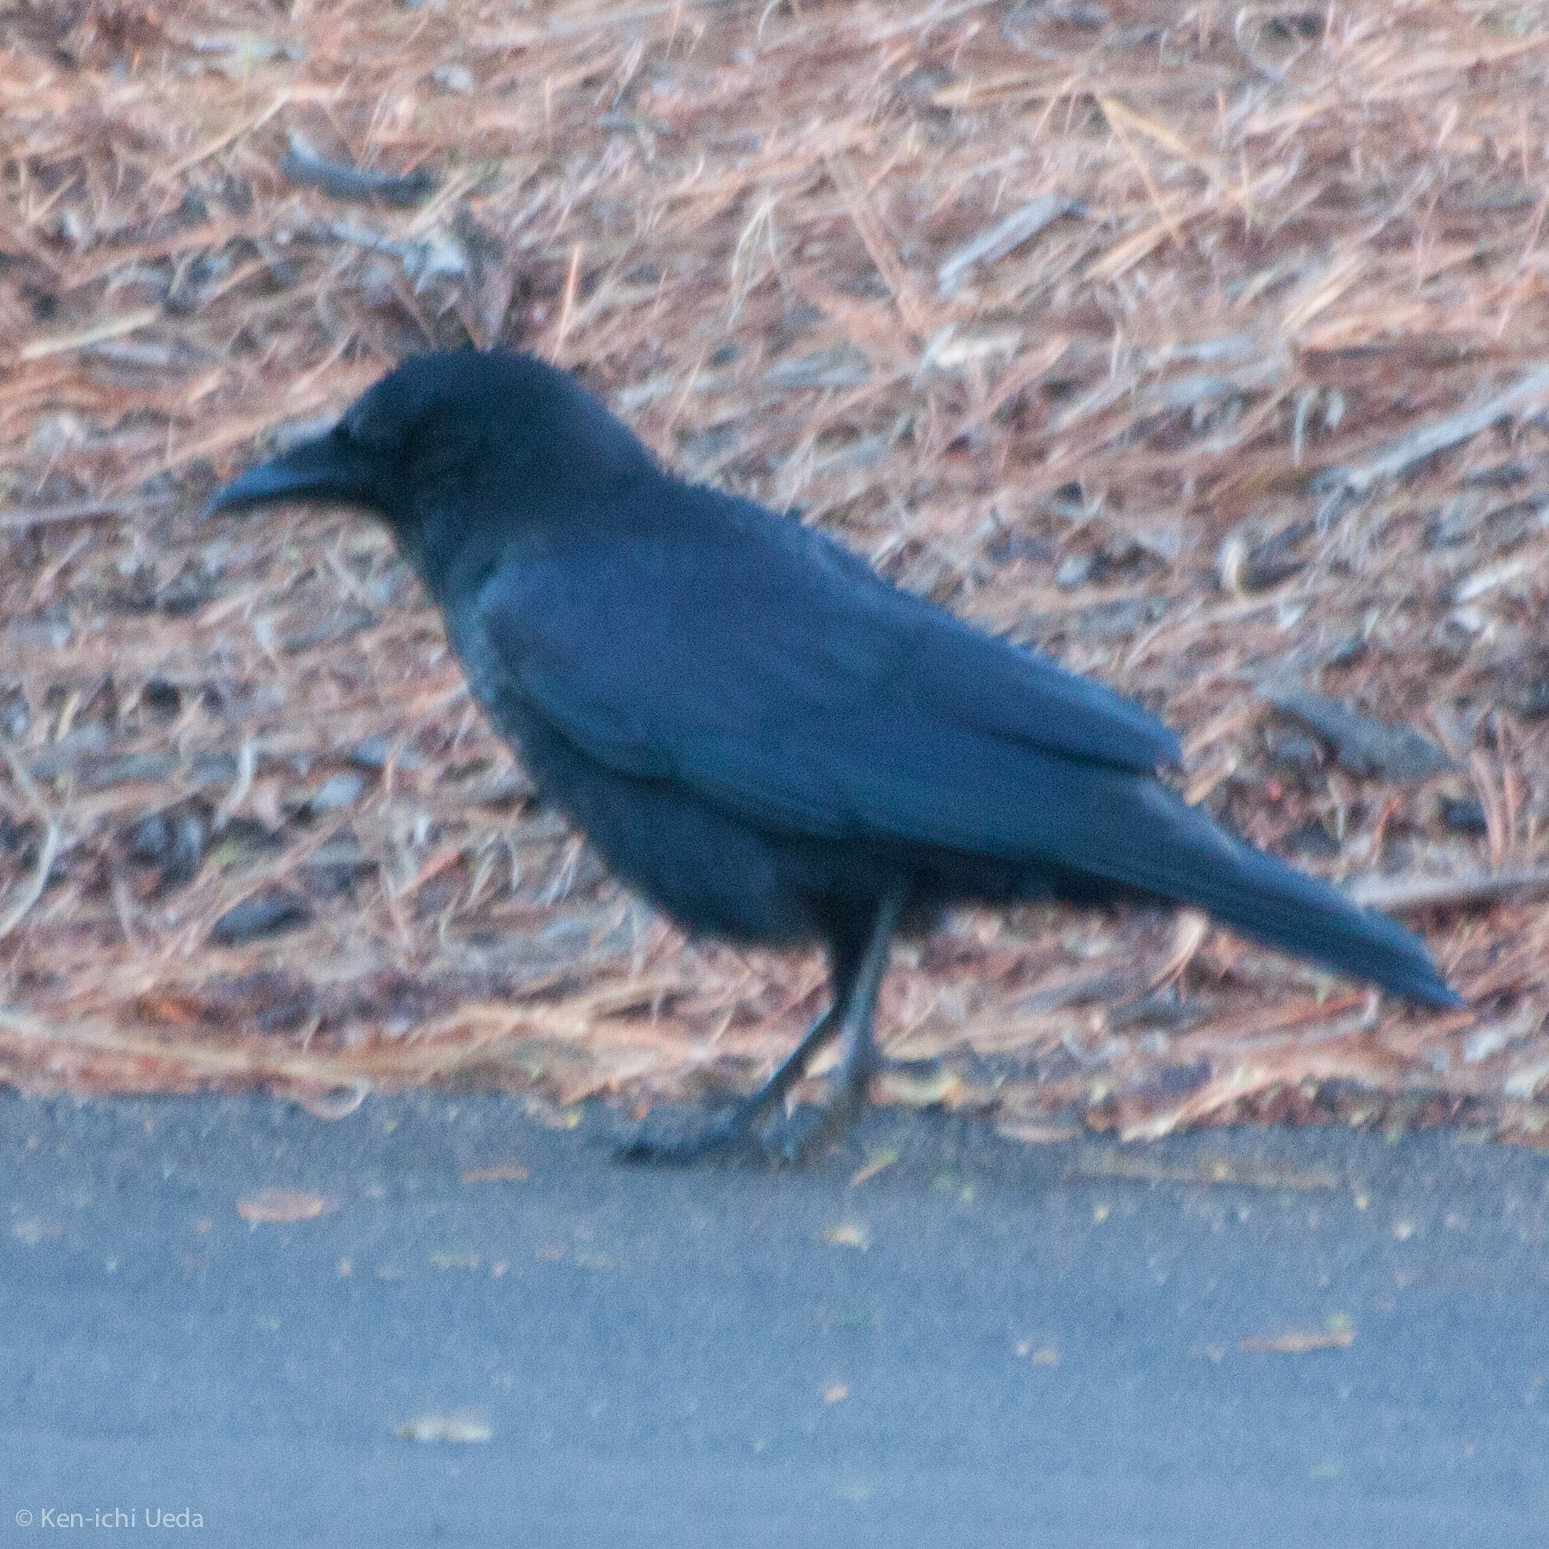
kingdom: Animalia
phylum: Chordata
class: Aves
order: Passeriformes
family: Corvidae
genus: Corvus
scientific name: Corvus brachyrhynchos
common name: American crow
